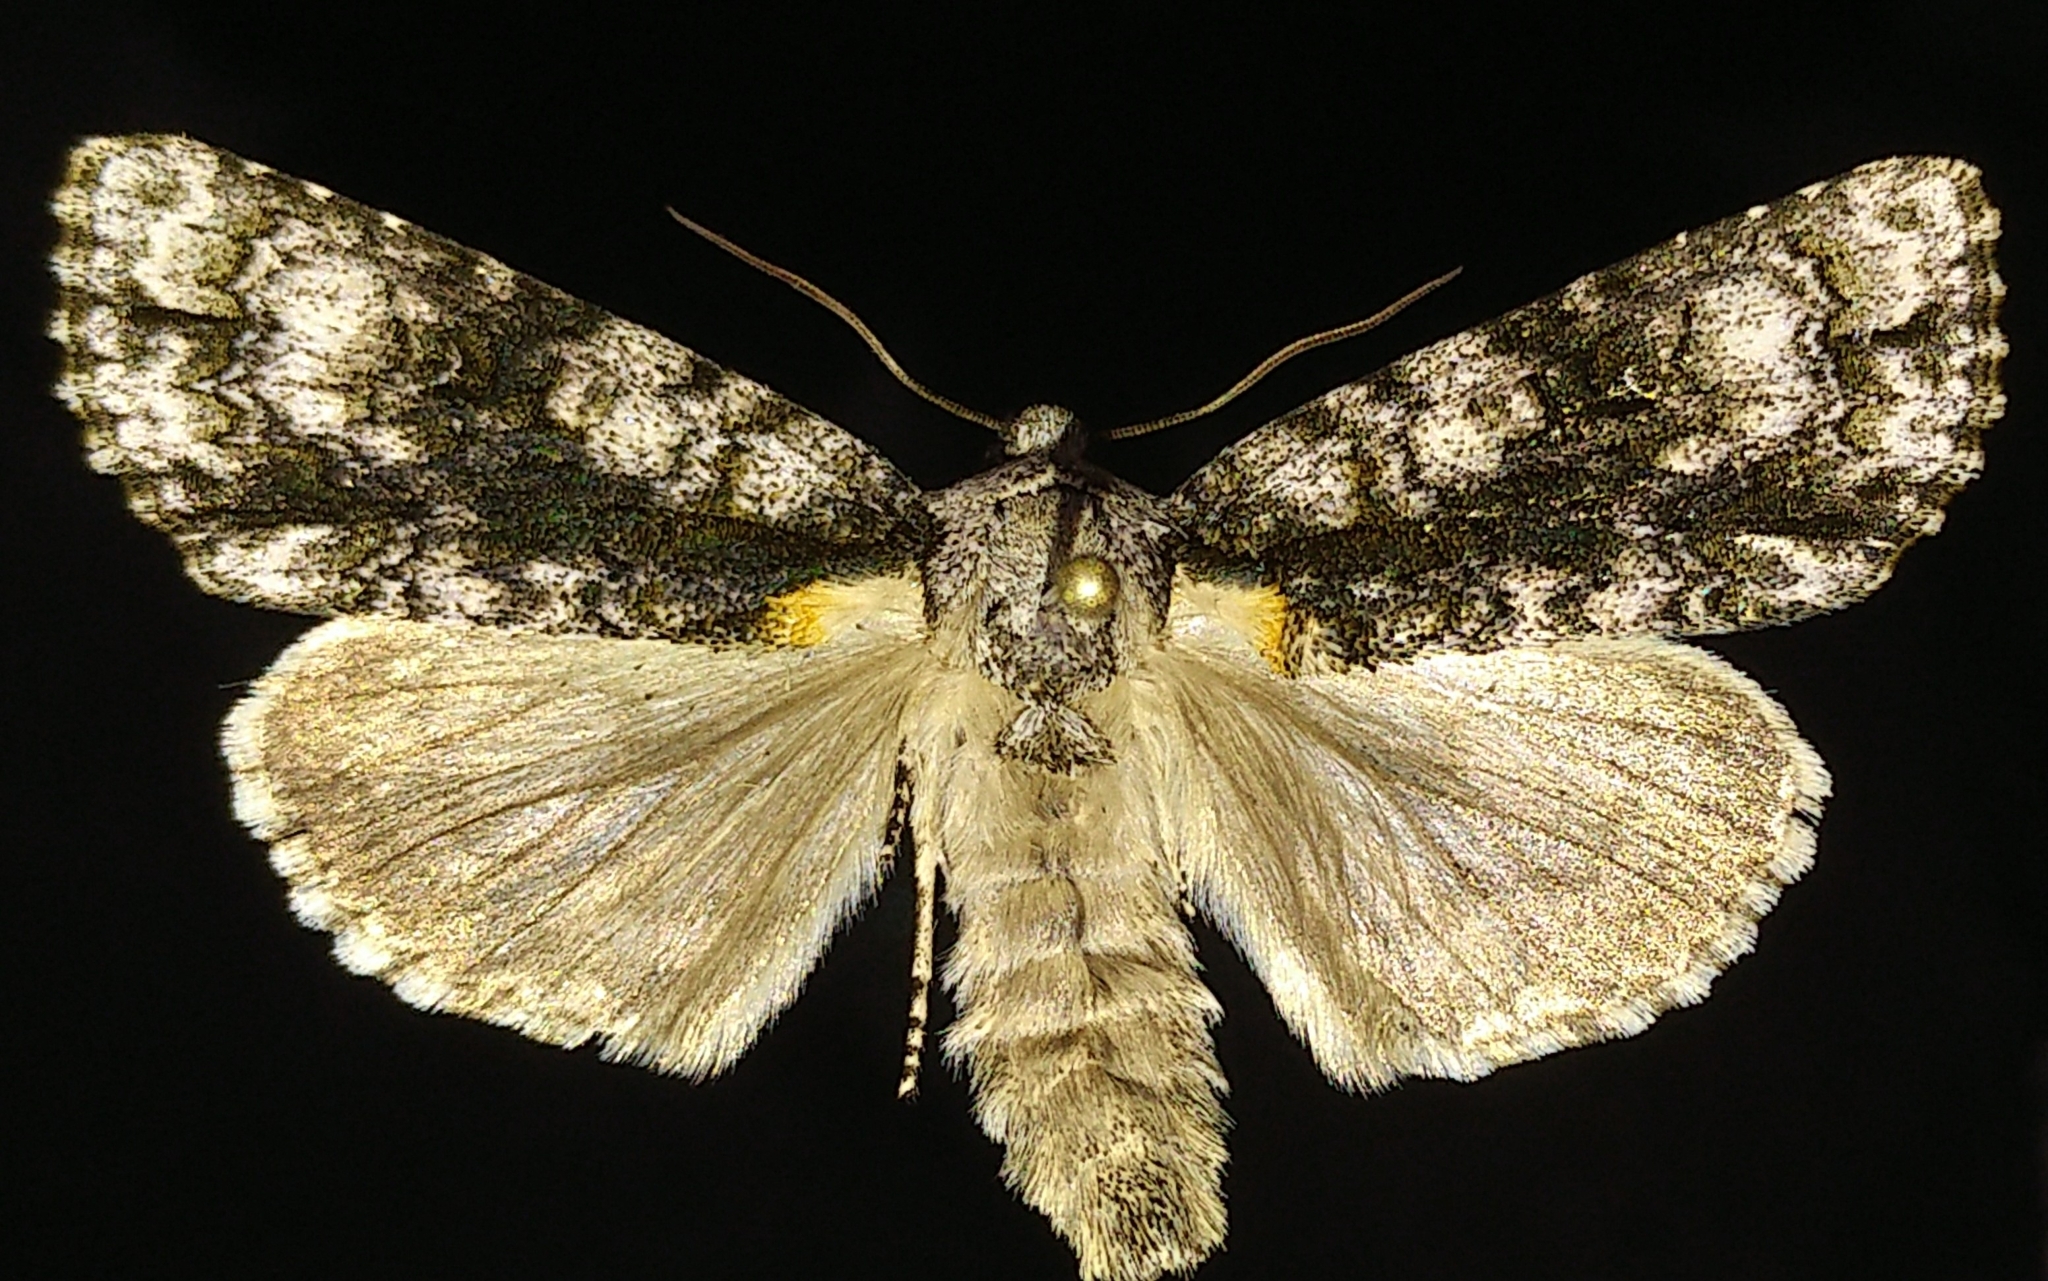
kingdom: Animalia
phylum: Arthropoda
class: Insecta
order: Lepidoptera
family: Noctuidae
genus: Acronicta
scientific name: Acronicta superans
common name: Splendid dagger
